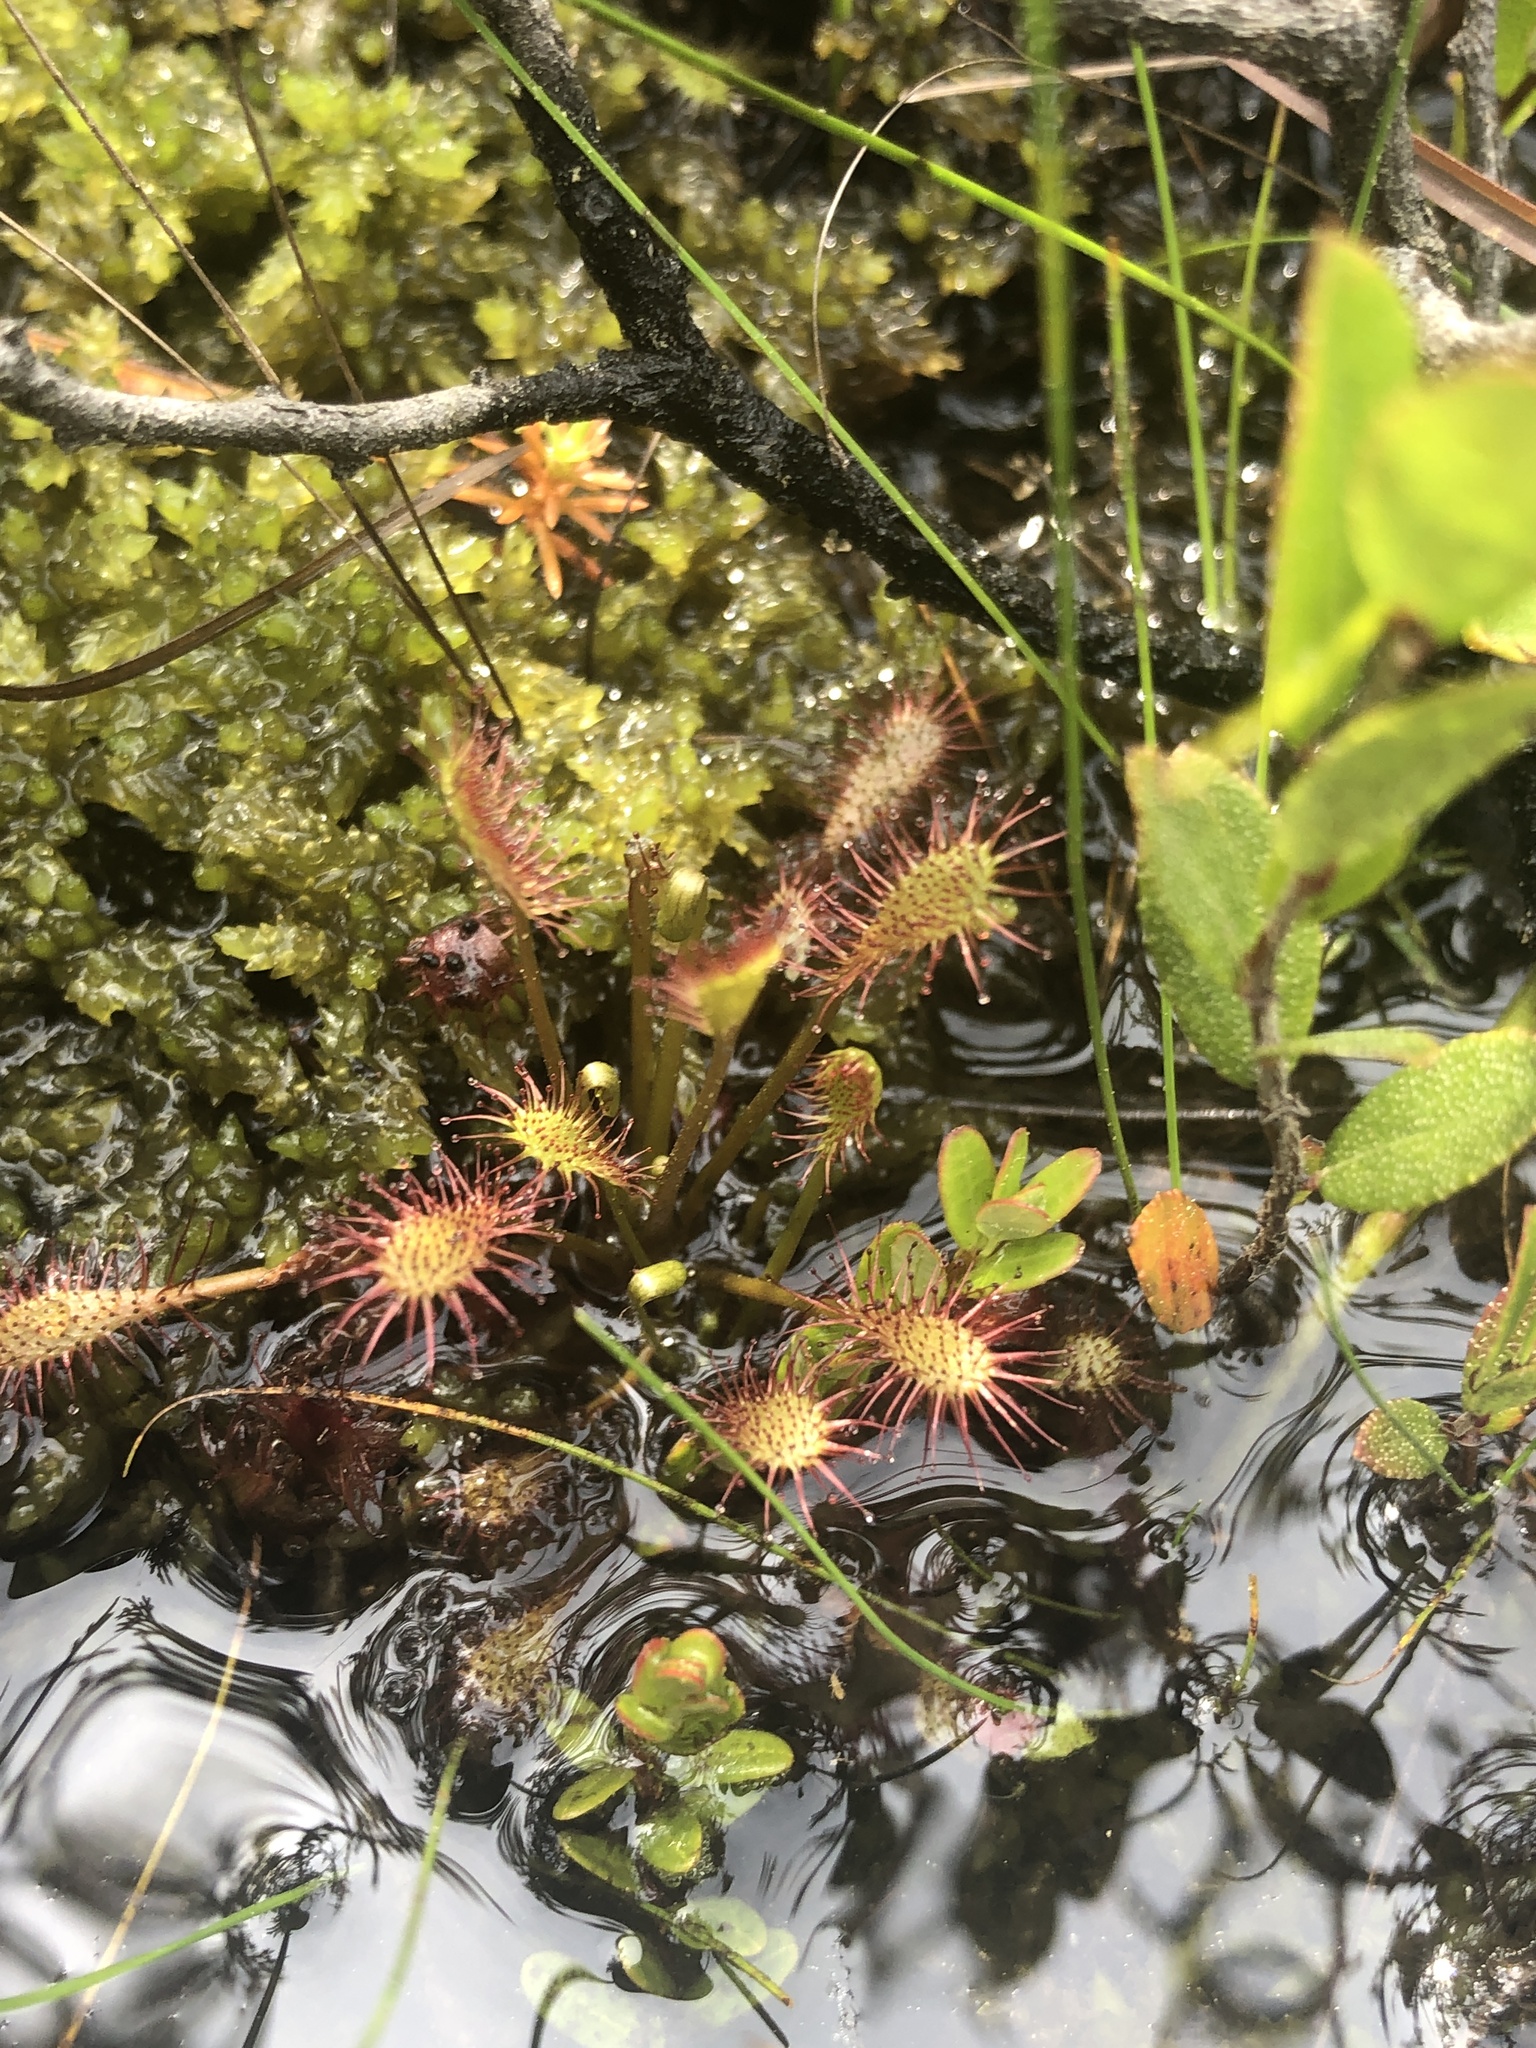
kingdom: Plantae
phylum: Tracheophyta
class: Magnoliopsida
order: Caryophyllales
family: Droseraceae
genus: Drosera
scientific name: Drosera intermedia
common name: Oblong-leaved sundew
